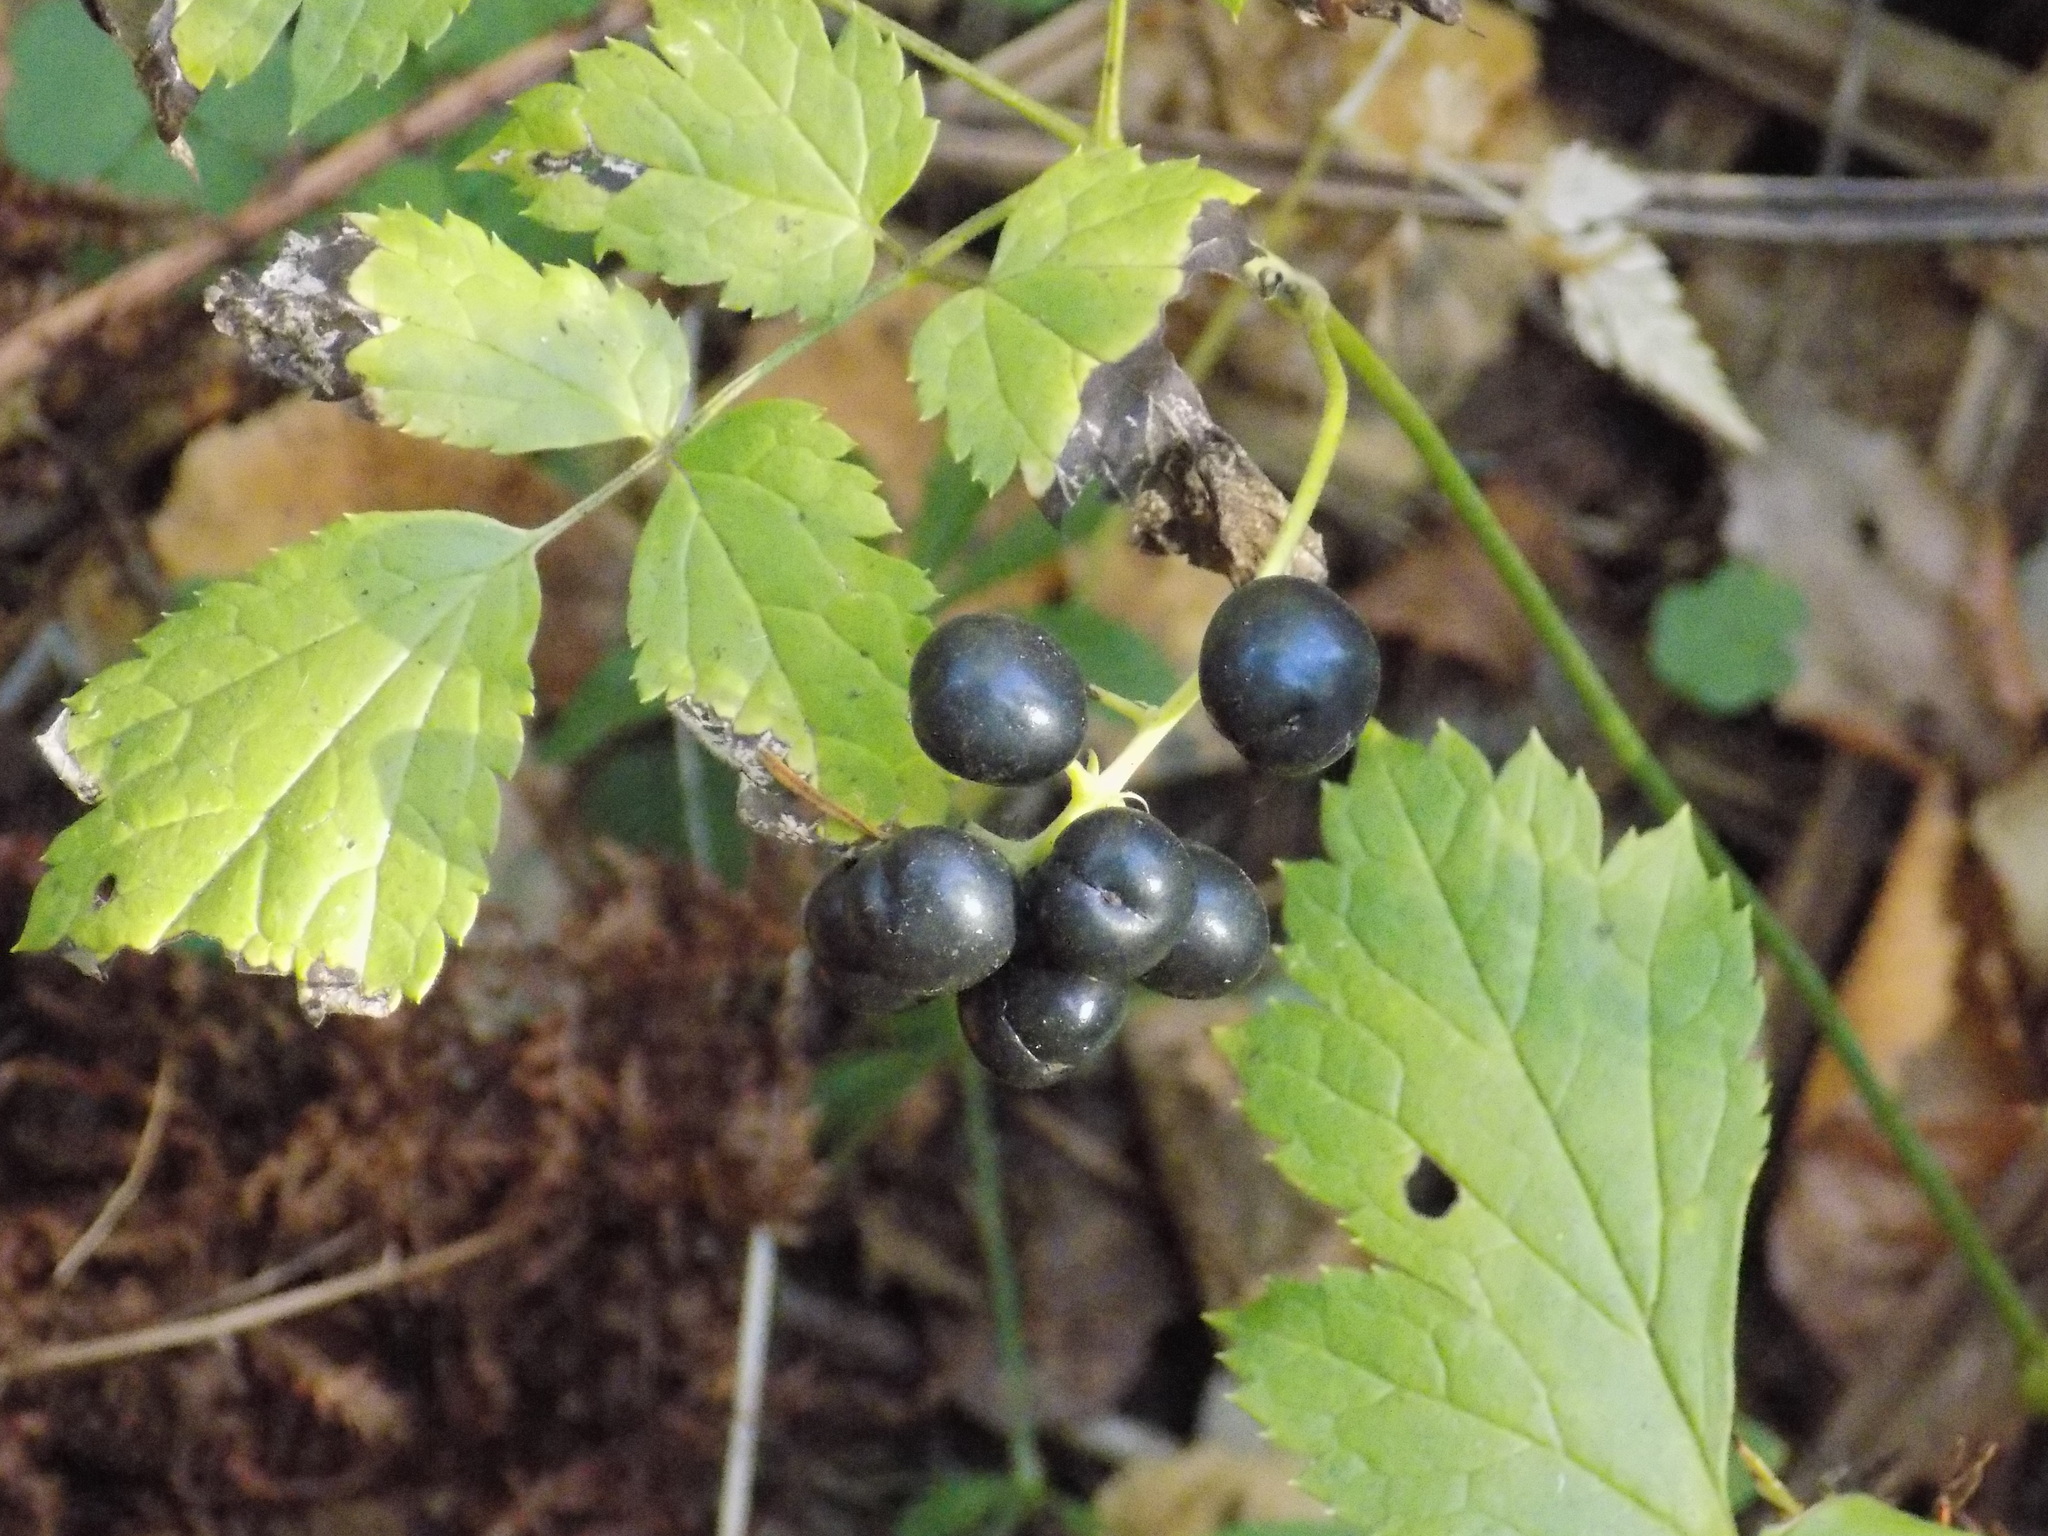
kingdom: Plantae
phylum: Tracheophyta
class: Magnoliopsida
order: Ranunculales
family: Ranunculaceae
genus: Actaea
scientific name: Actaea spicata
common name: Baneberry
